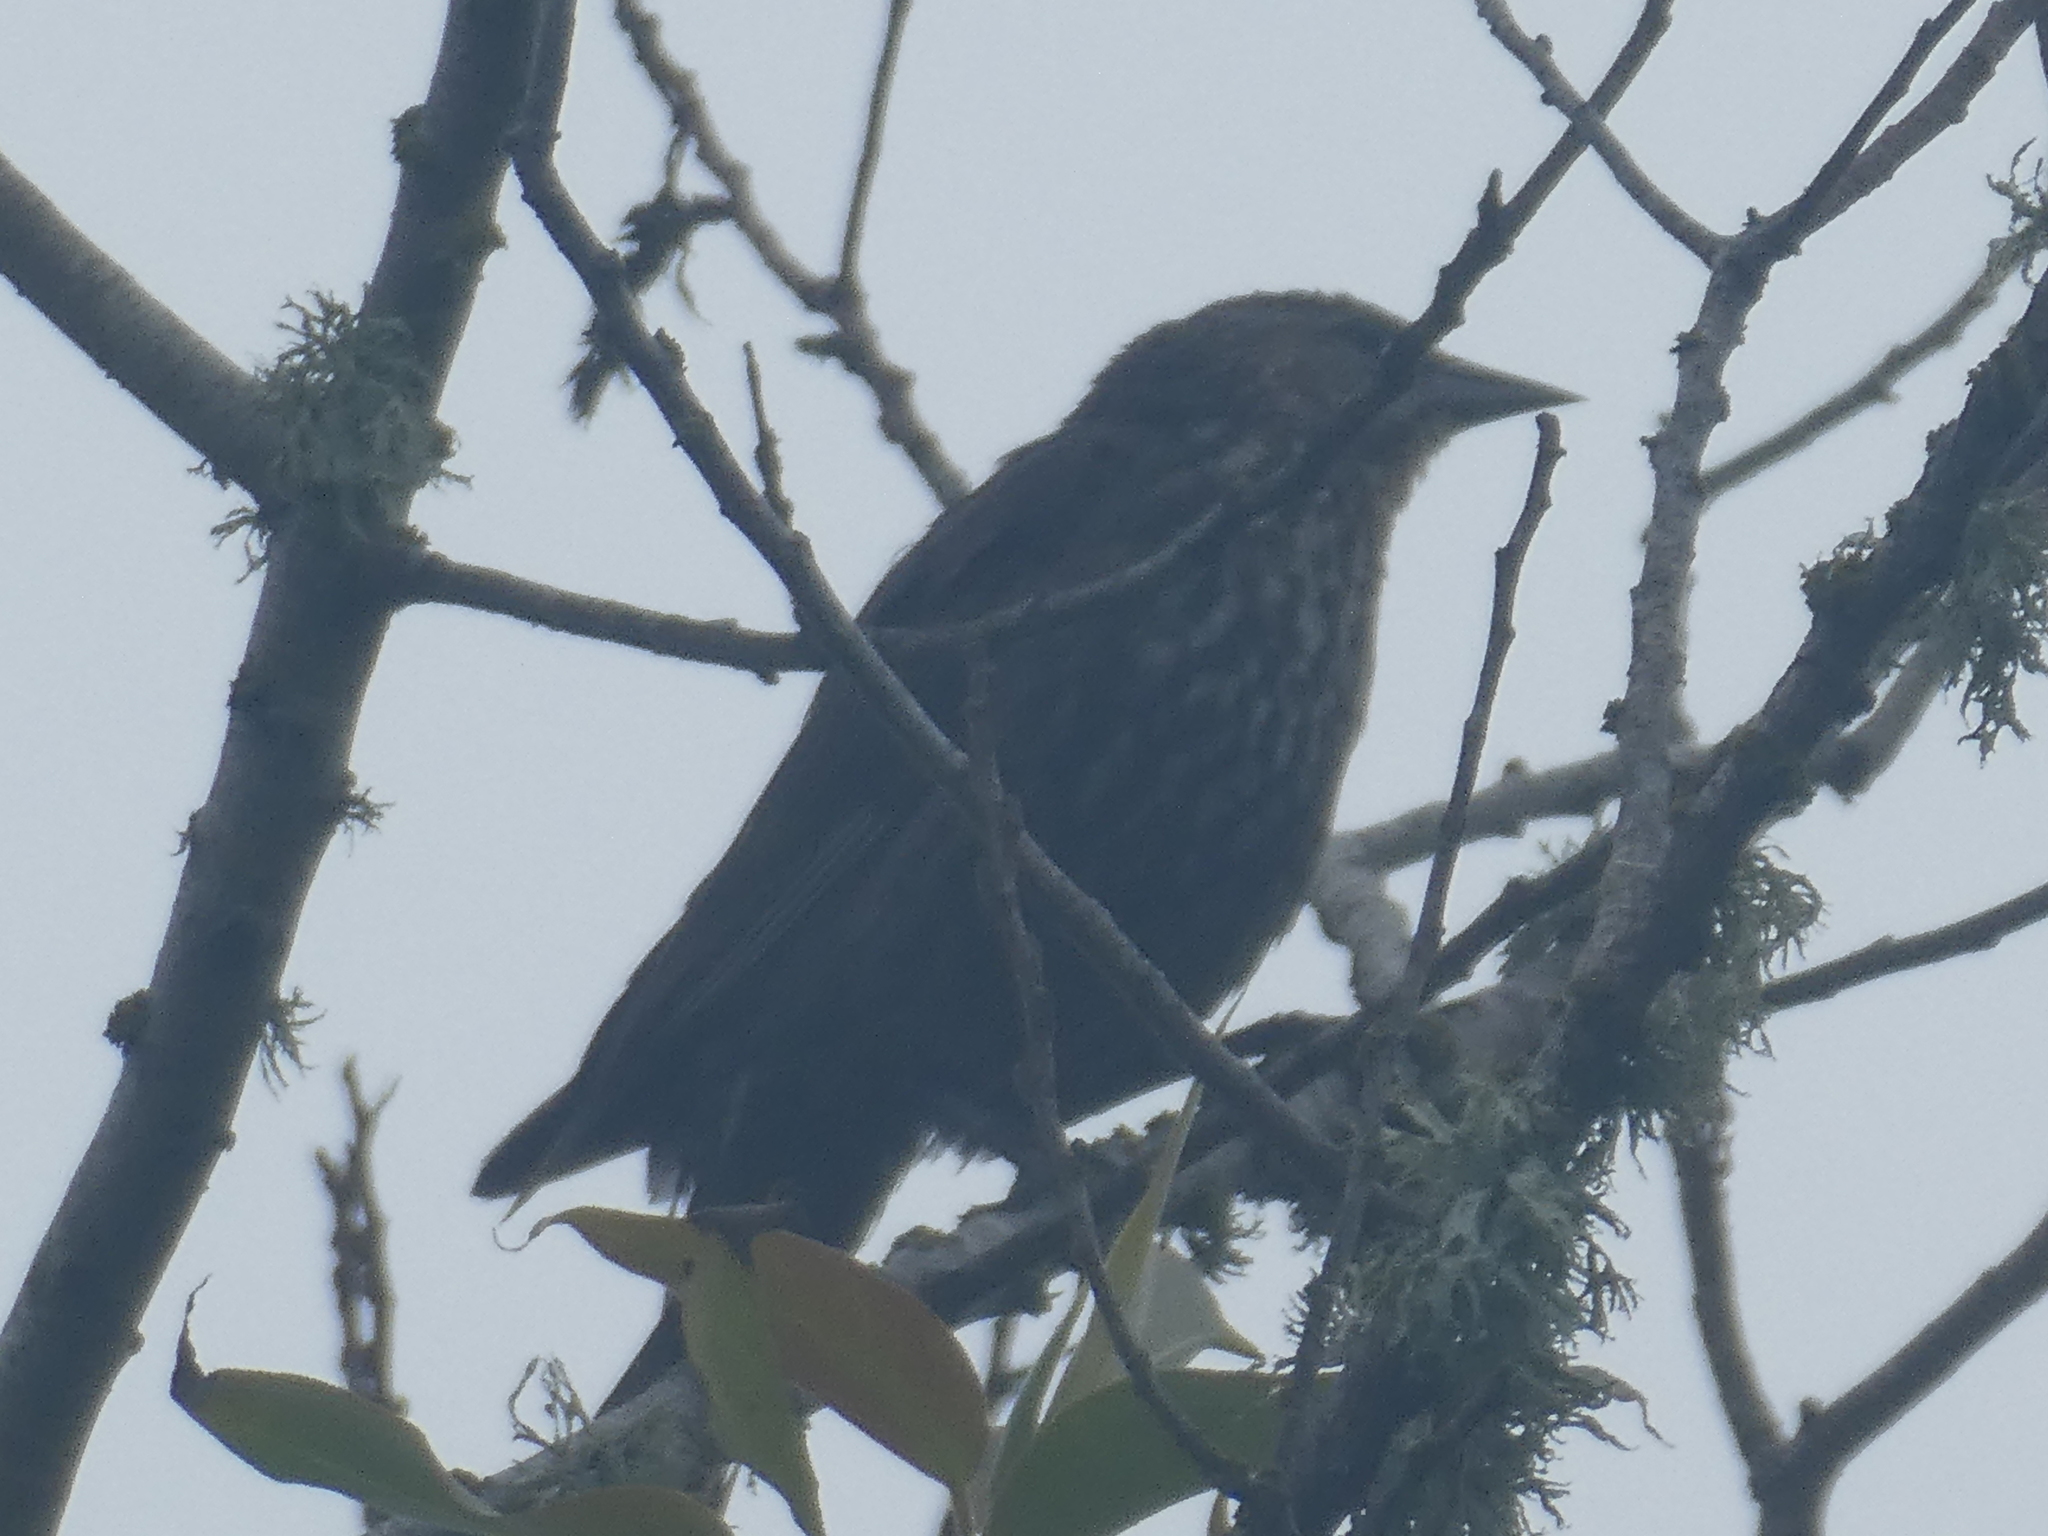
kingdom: Animalia
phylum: Chordata
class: Aves
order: Passeriformes
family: Icteridae
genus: Agelaius
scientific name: Agelaius phoeniceus
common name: Red-winged blackbird
